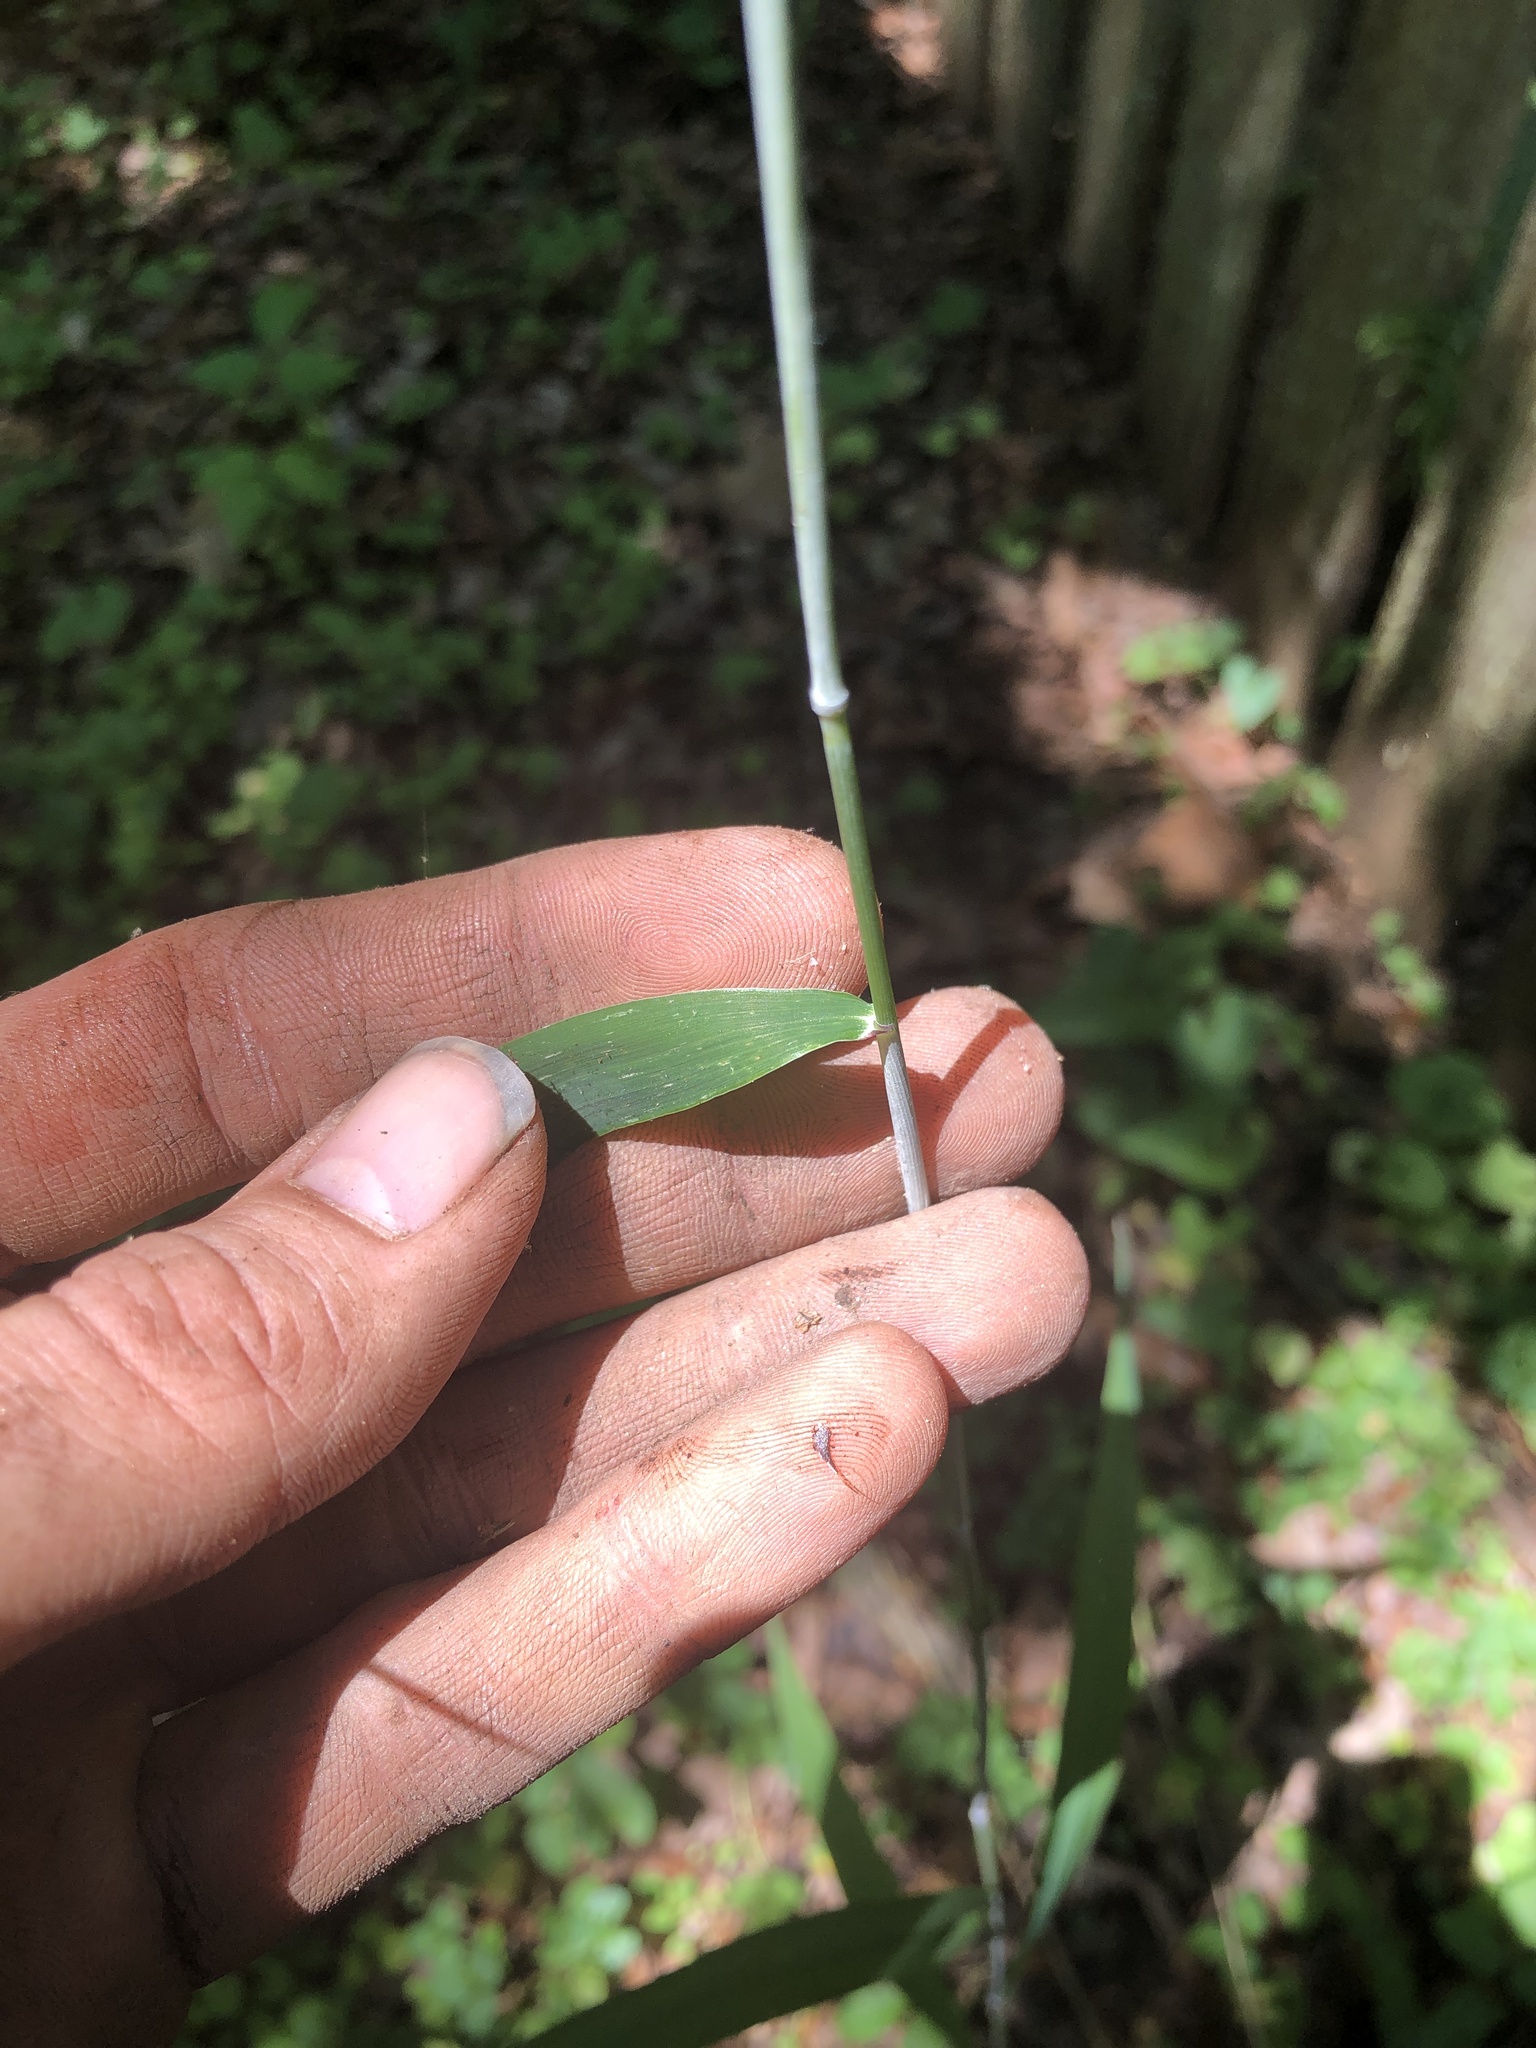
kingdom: Plantae
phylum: Tracheophyta
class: Liliopsida
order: Poales
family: Poaceae
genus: Elymus
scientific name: Elymus hystrix
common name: Bottlebrush grass
